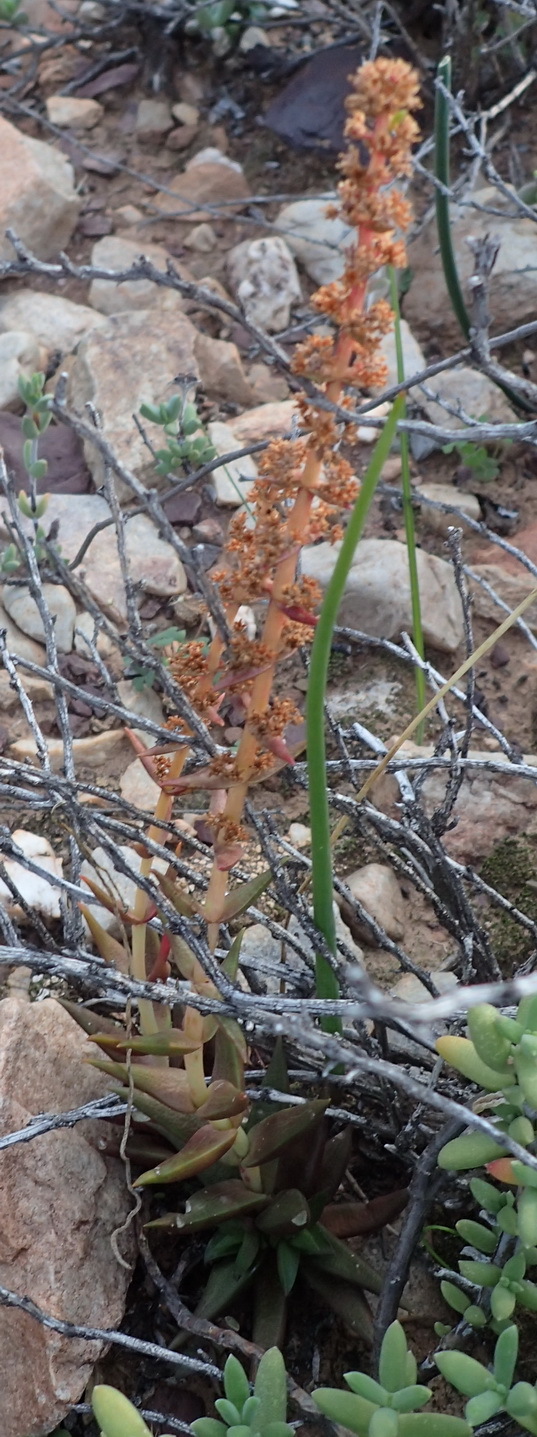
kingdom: Plantae
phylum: Tracheophyta
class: Magnoliopsida
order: Saxifragales
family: Crassulaceae
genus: Crassula
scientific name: Crassula capitella
